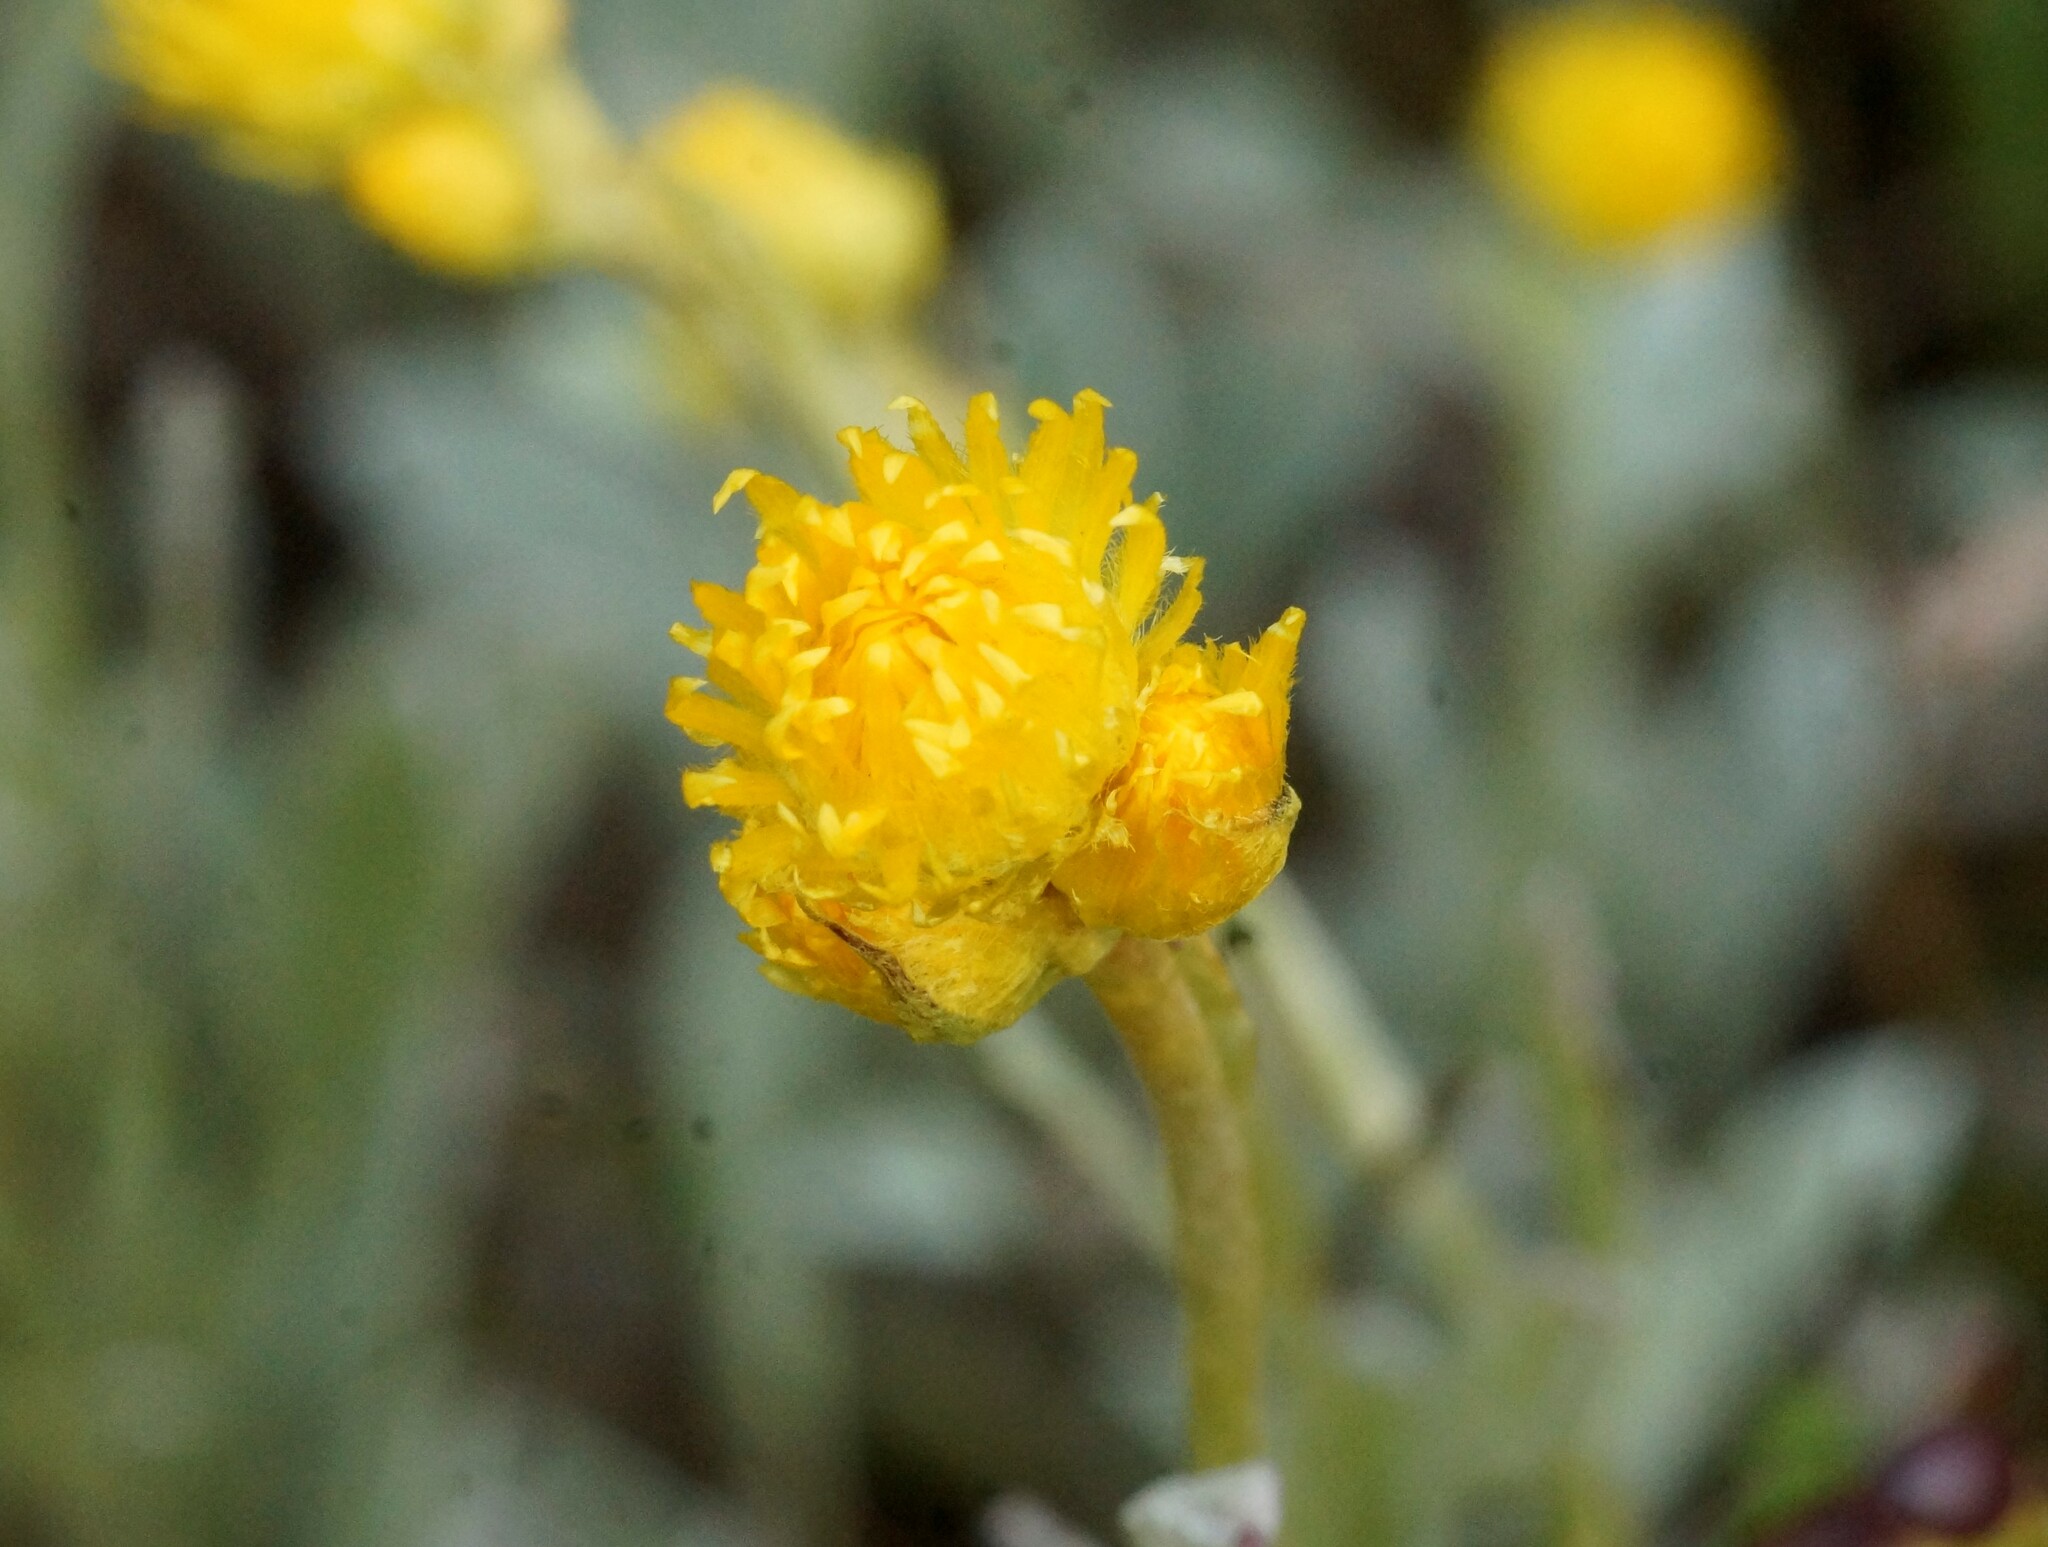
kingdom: Plantae
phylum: Tracheophyta
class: Magnoliopsida
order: Asterales
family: Asteraceae
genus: Chrysocephalum
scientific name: Chrysocephalum apiculatum
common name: Common everlasting
